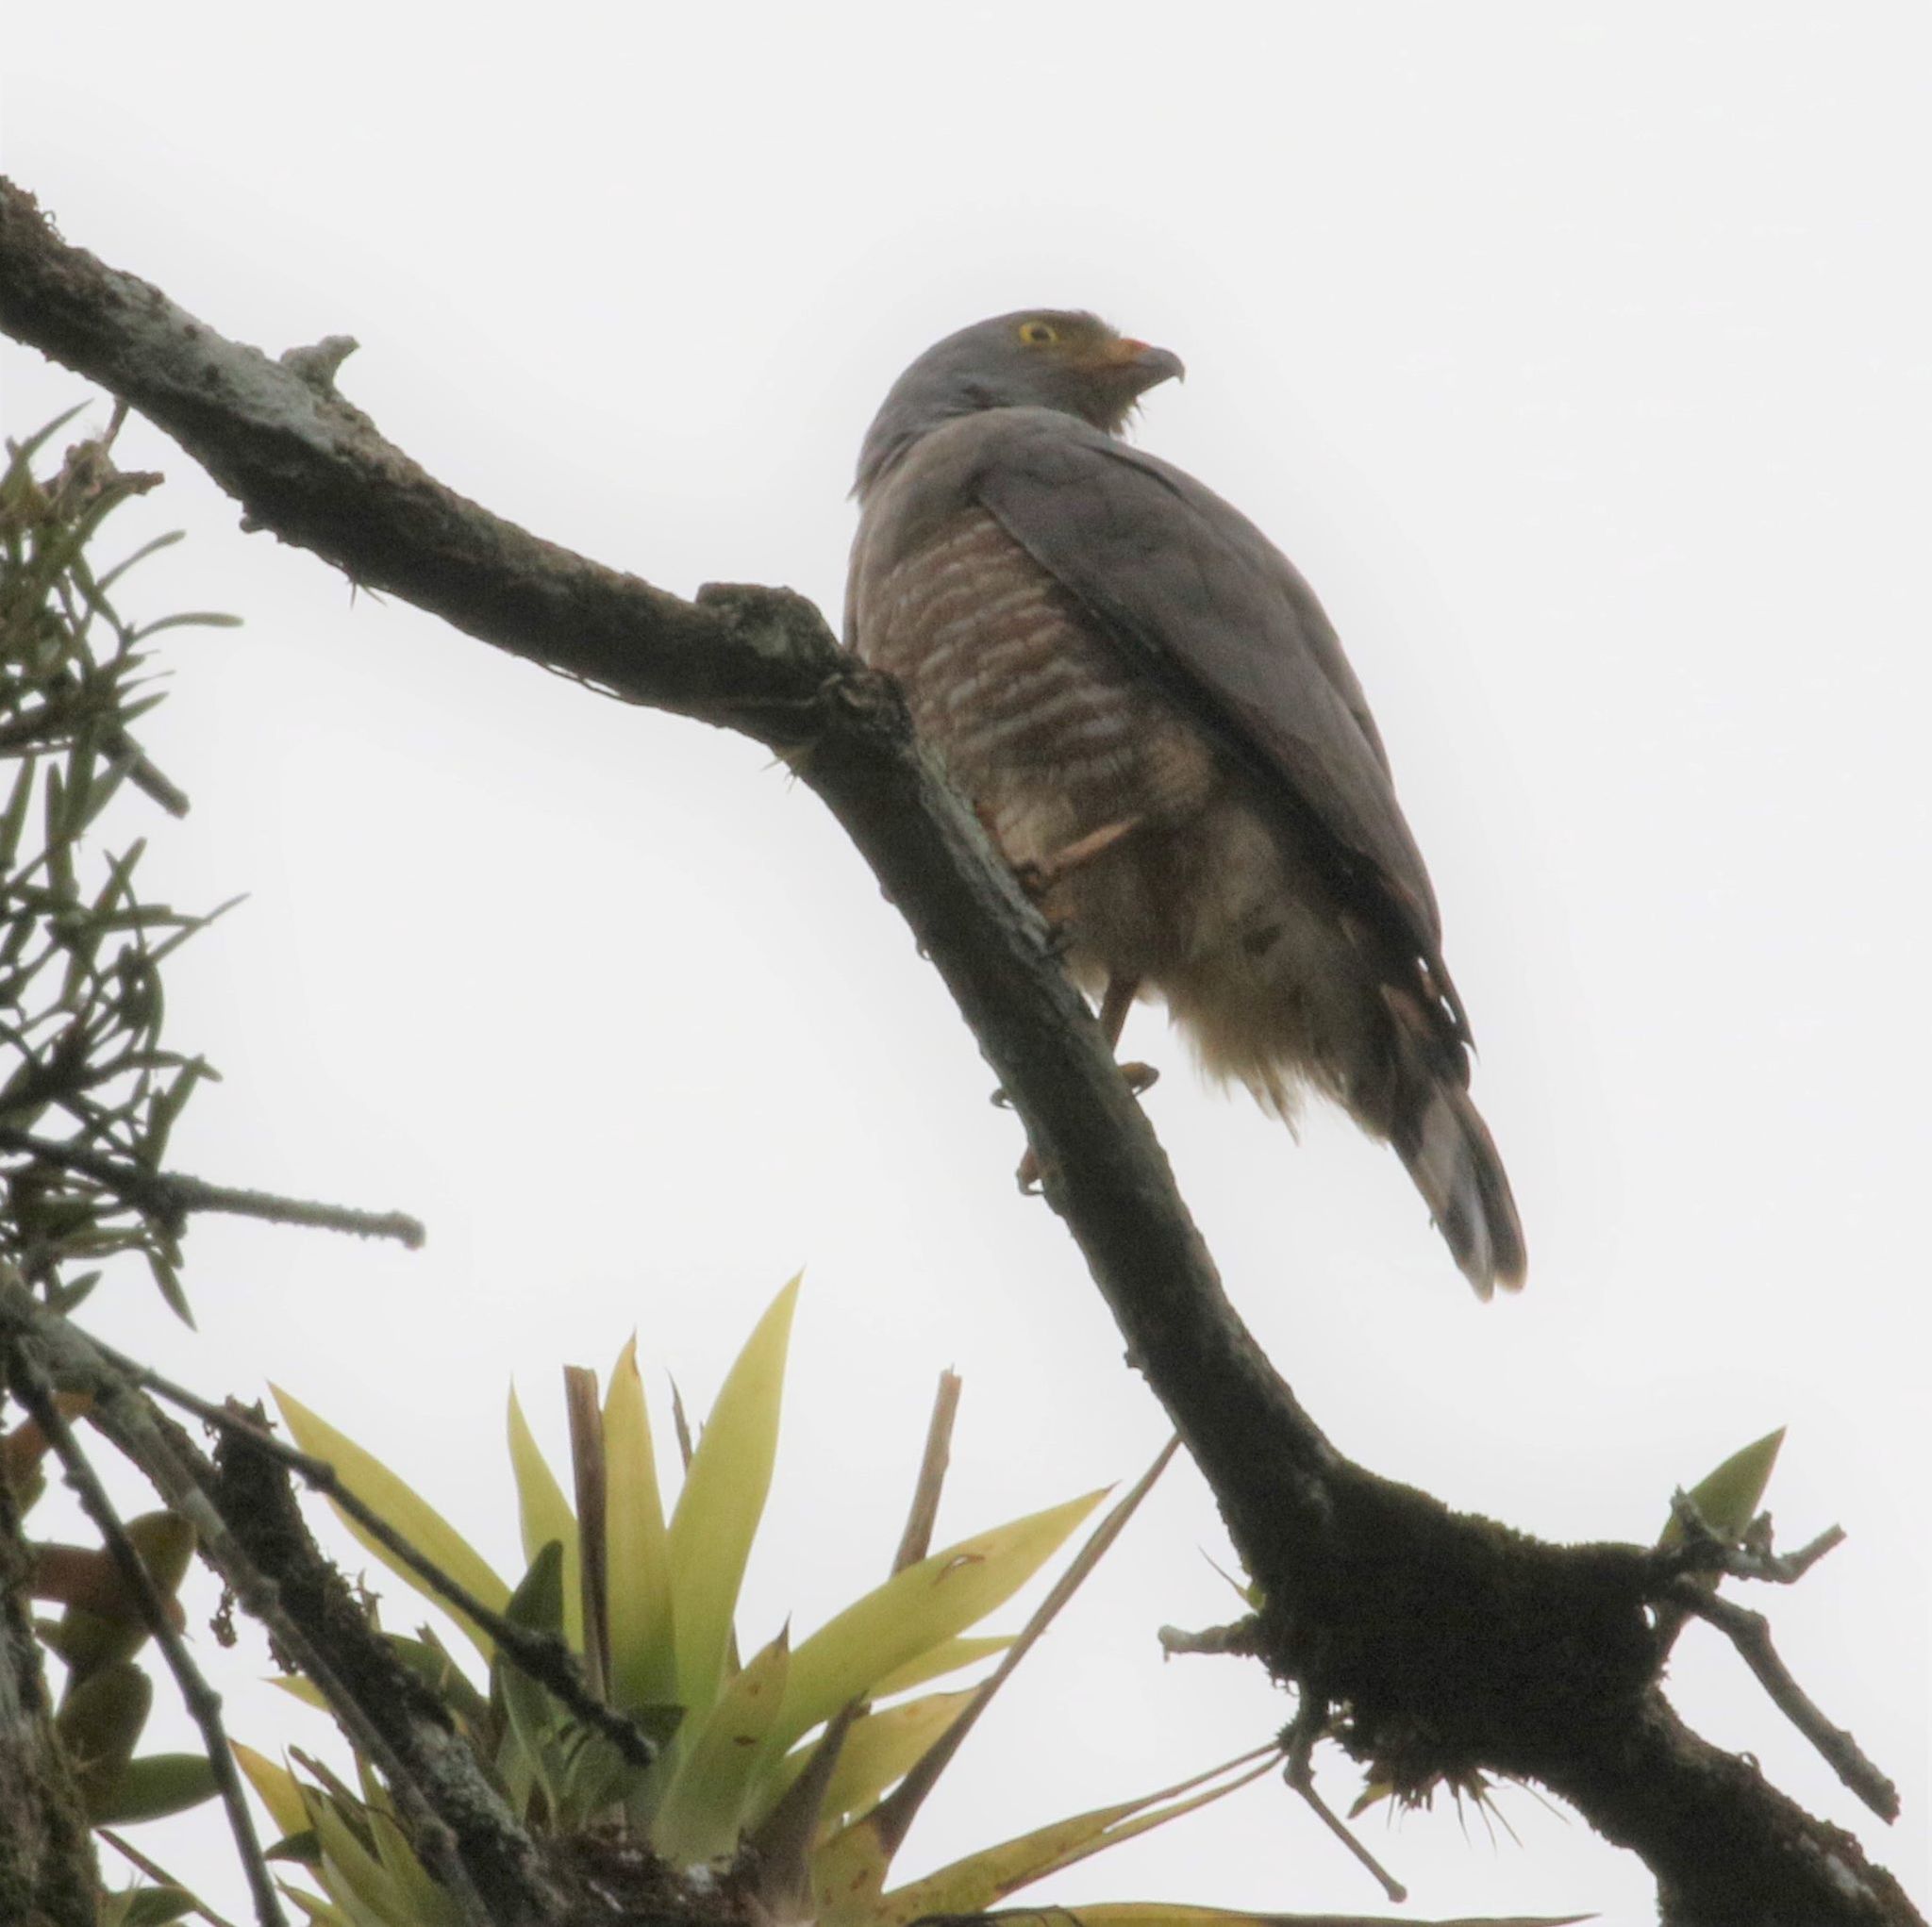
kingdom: Animalia
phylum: Chordata
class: Aves
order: Accipitriformes
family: Accipitridae
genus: Rupornis
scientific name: Rupornis magnirostris
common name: Roadside hawk
